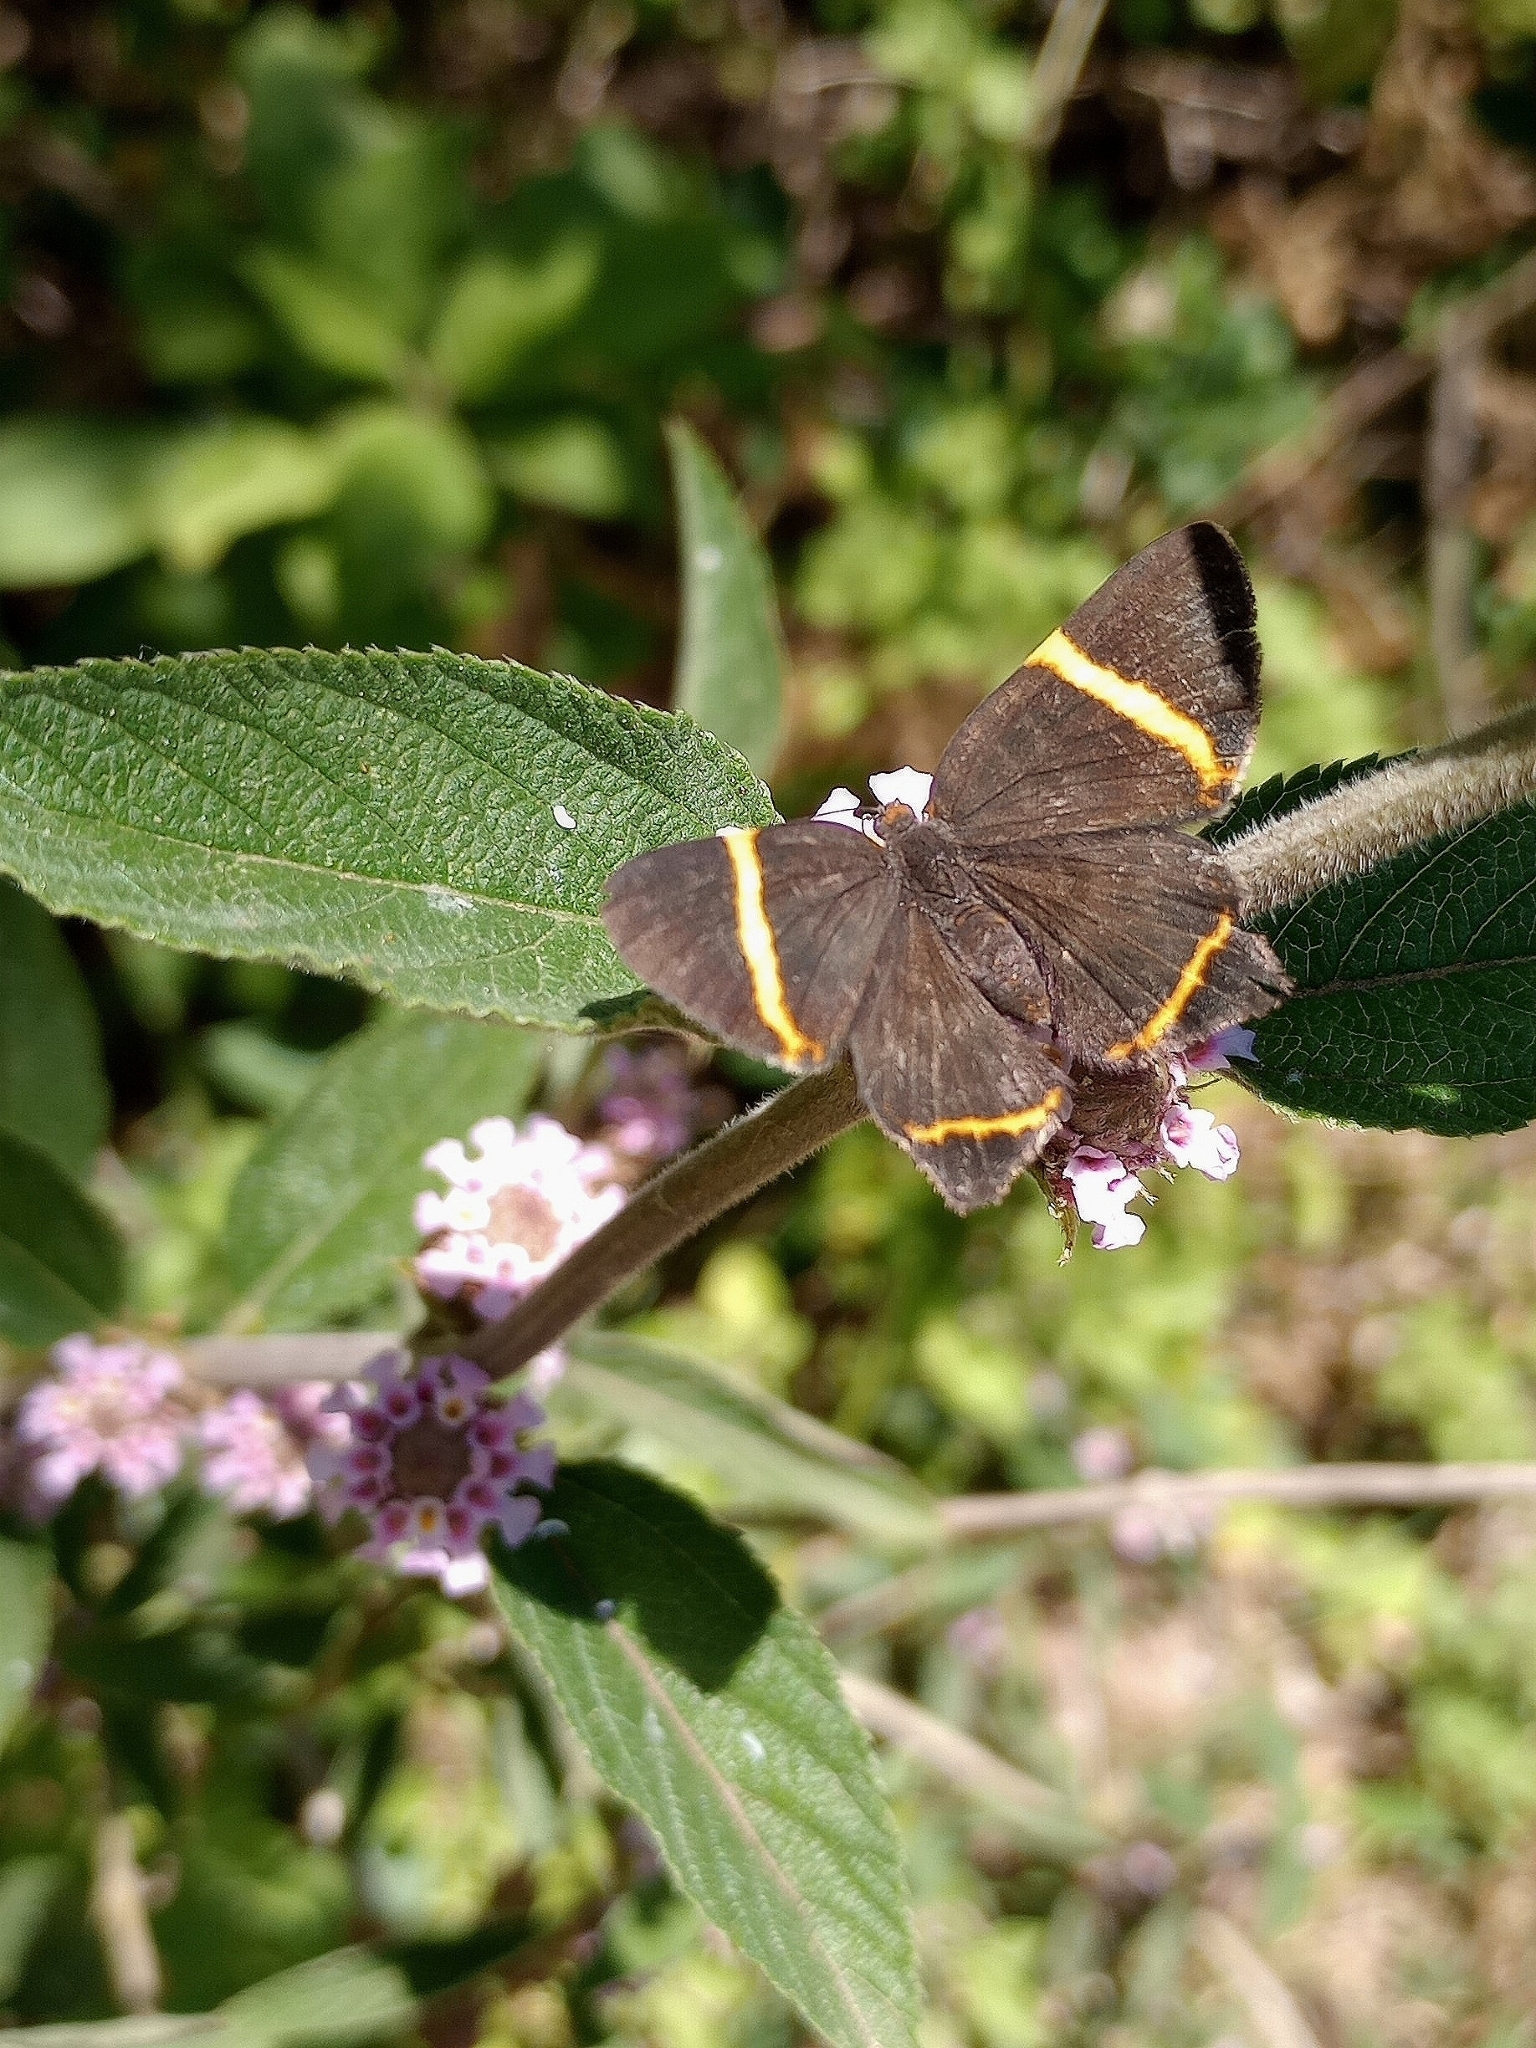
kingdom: Animalia
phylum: Arthropoda
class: Insecta
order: Lepidoptera
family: Riodinidae
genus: Riodina
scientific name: Riodina lysippoides
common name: Little dancer metalmark
